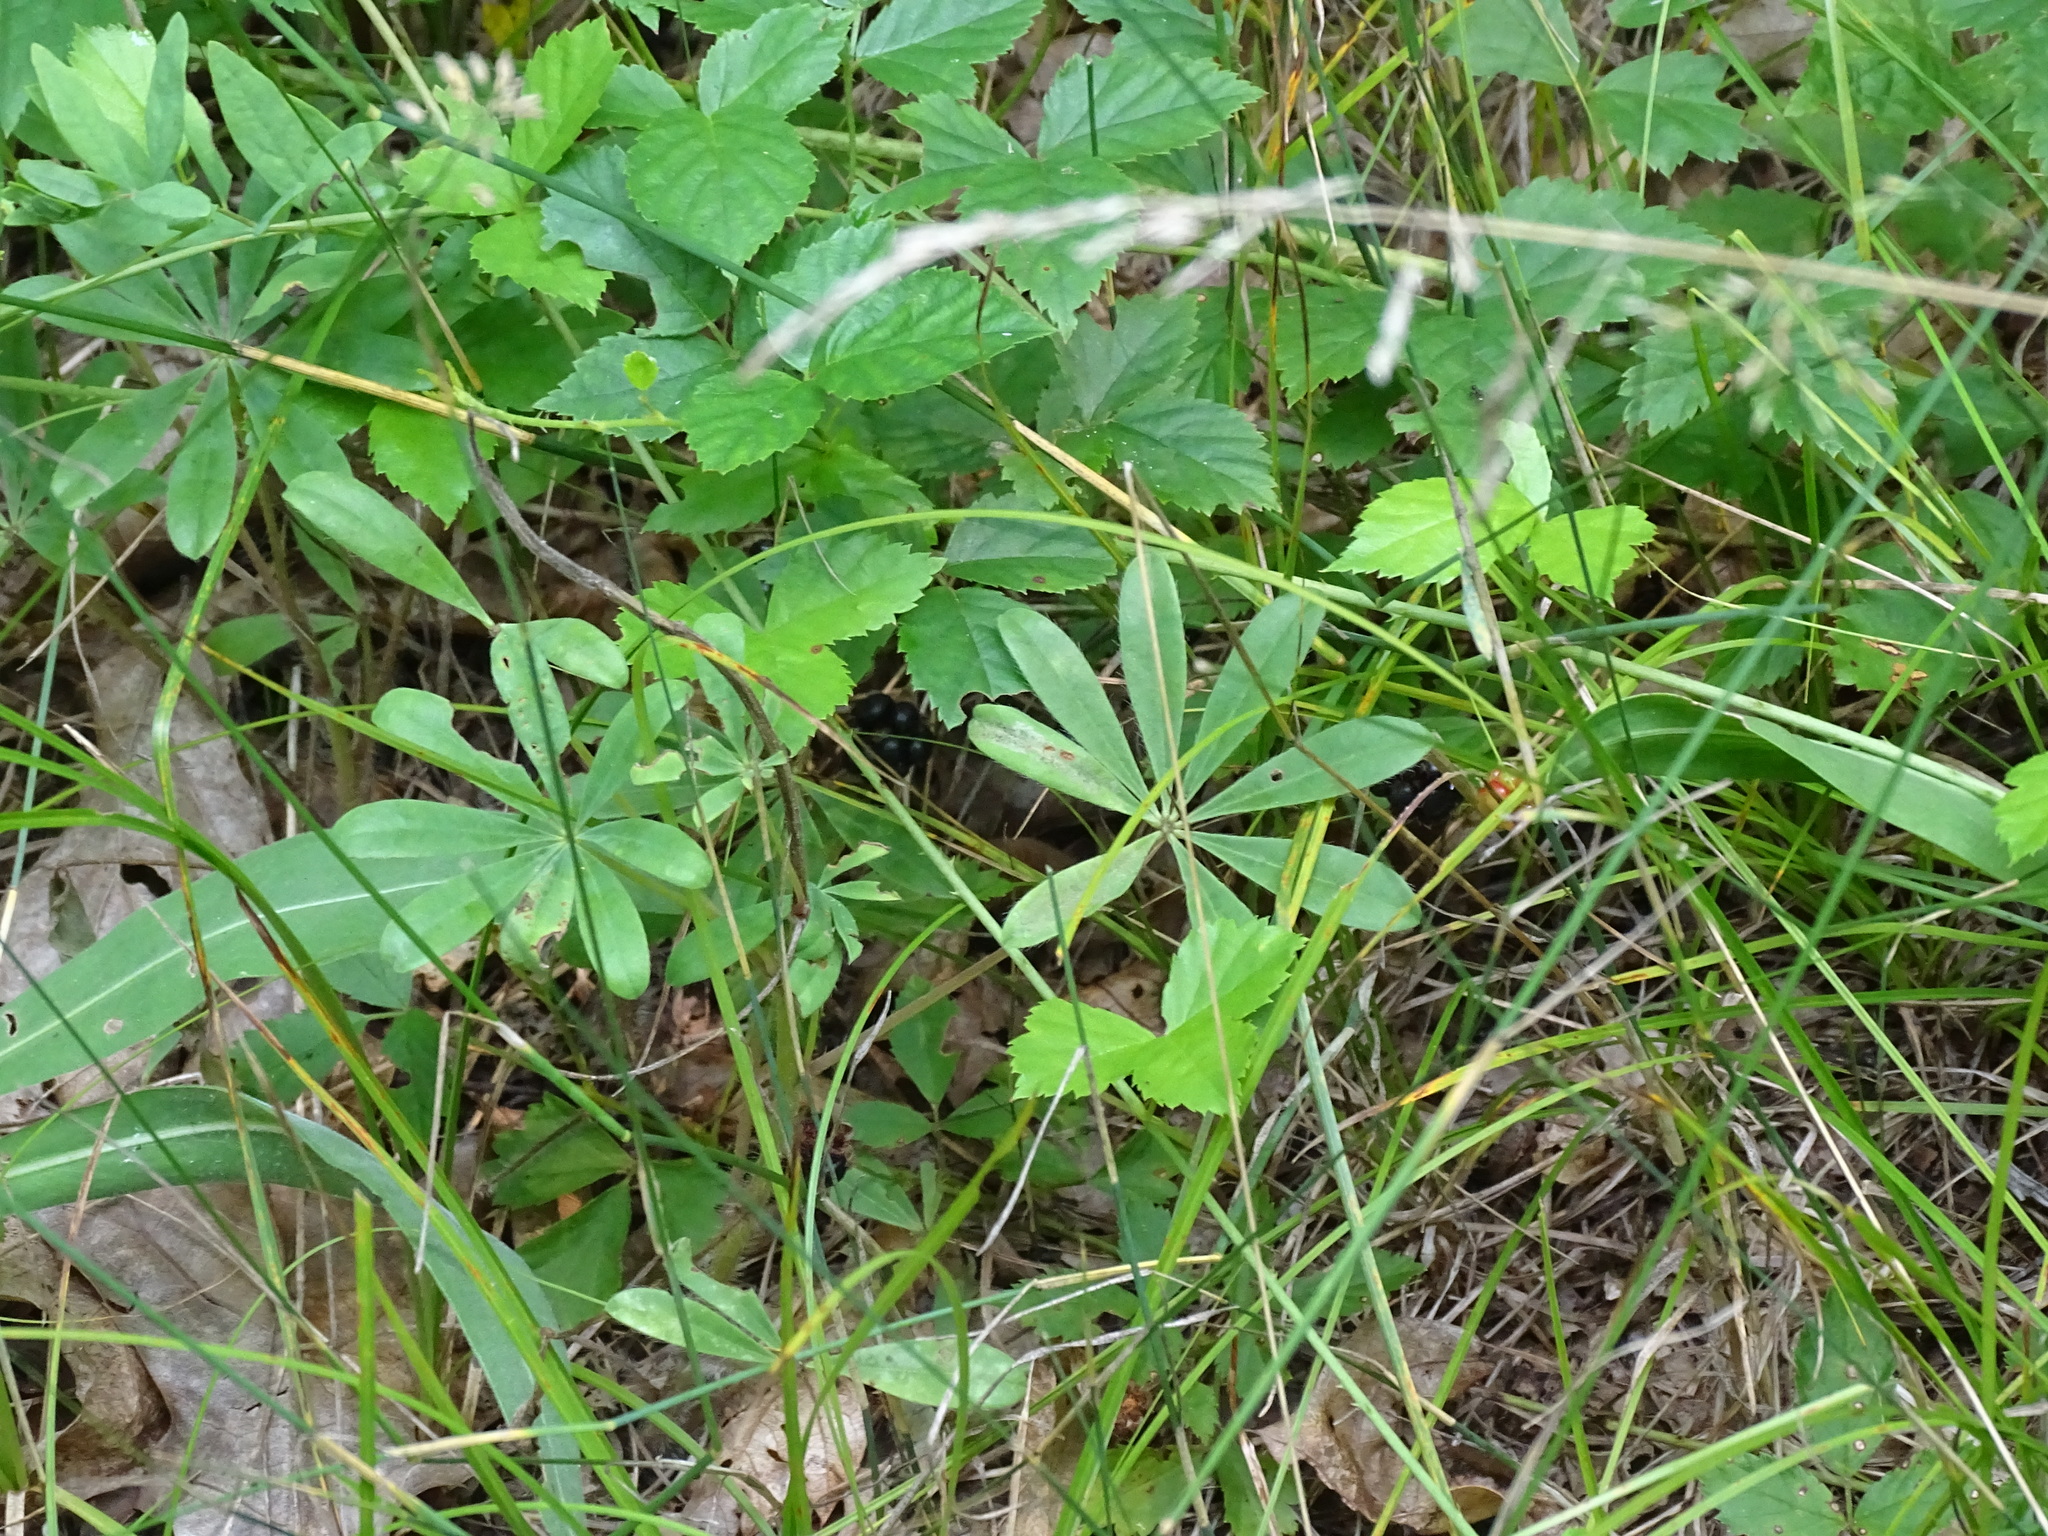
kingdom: Plantae
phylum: Tracheophyta
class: Magnoliopsida
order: Fabales
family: Fabaceae
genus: Lupinus
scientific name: Lupinus perennis
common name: Sundial lupine
